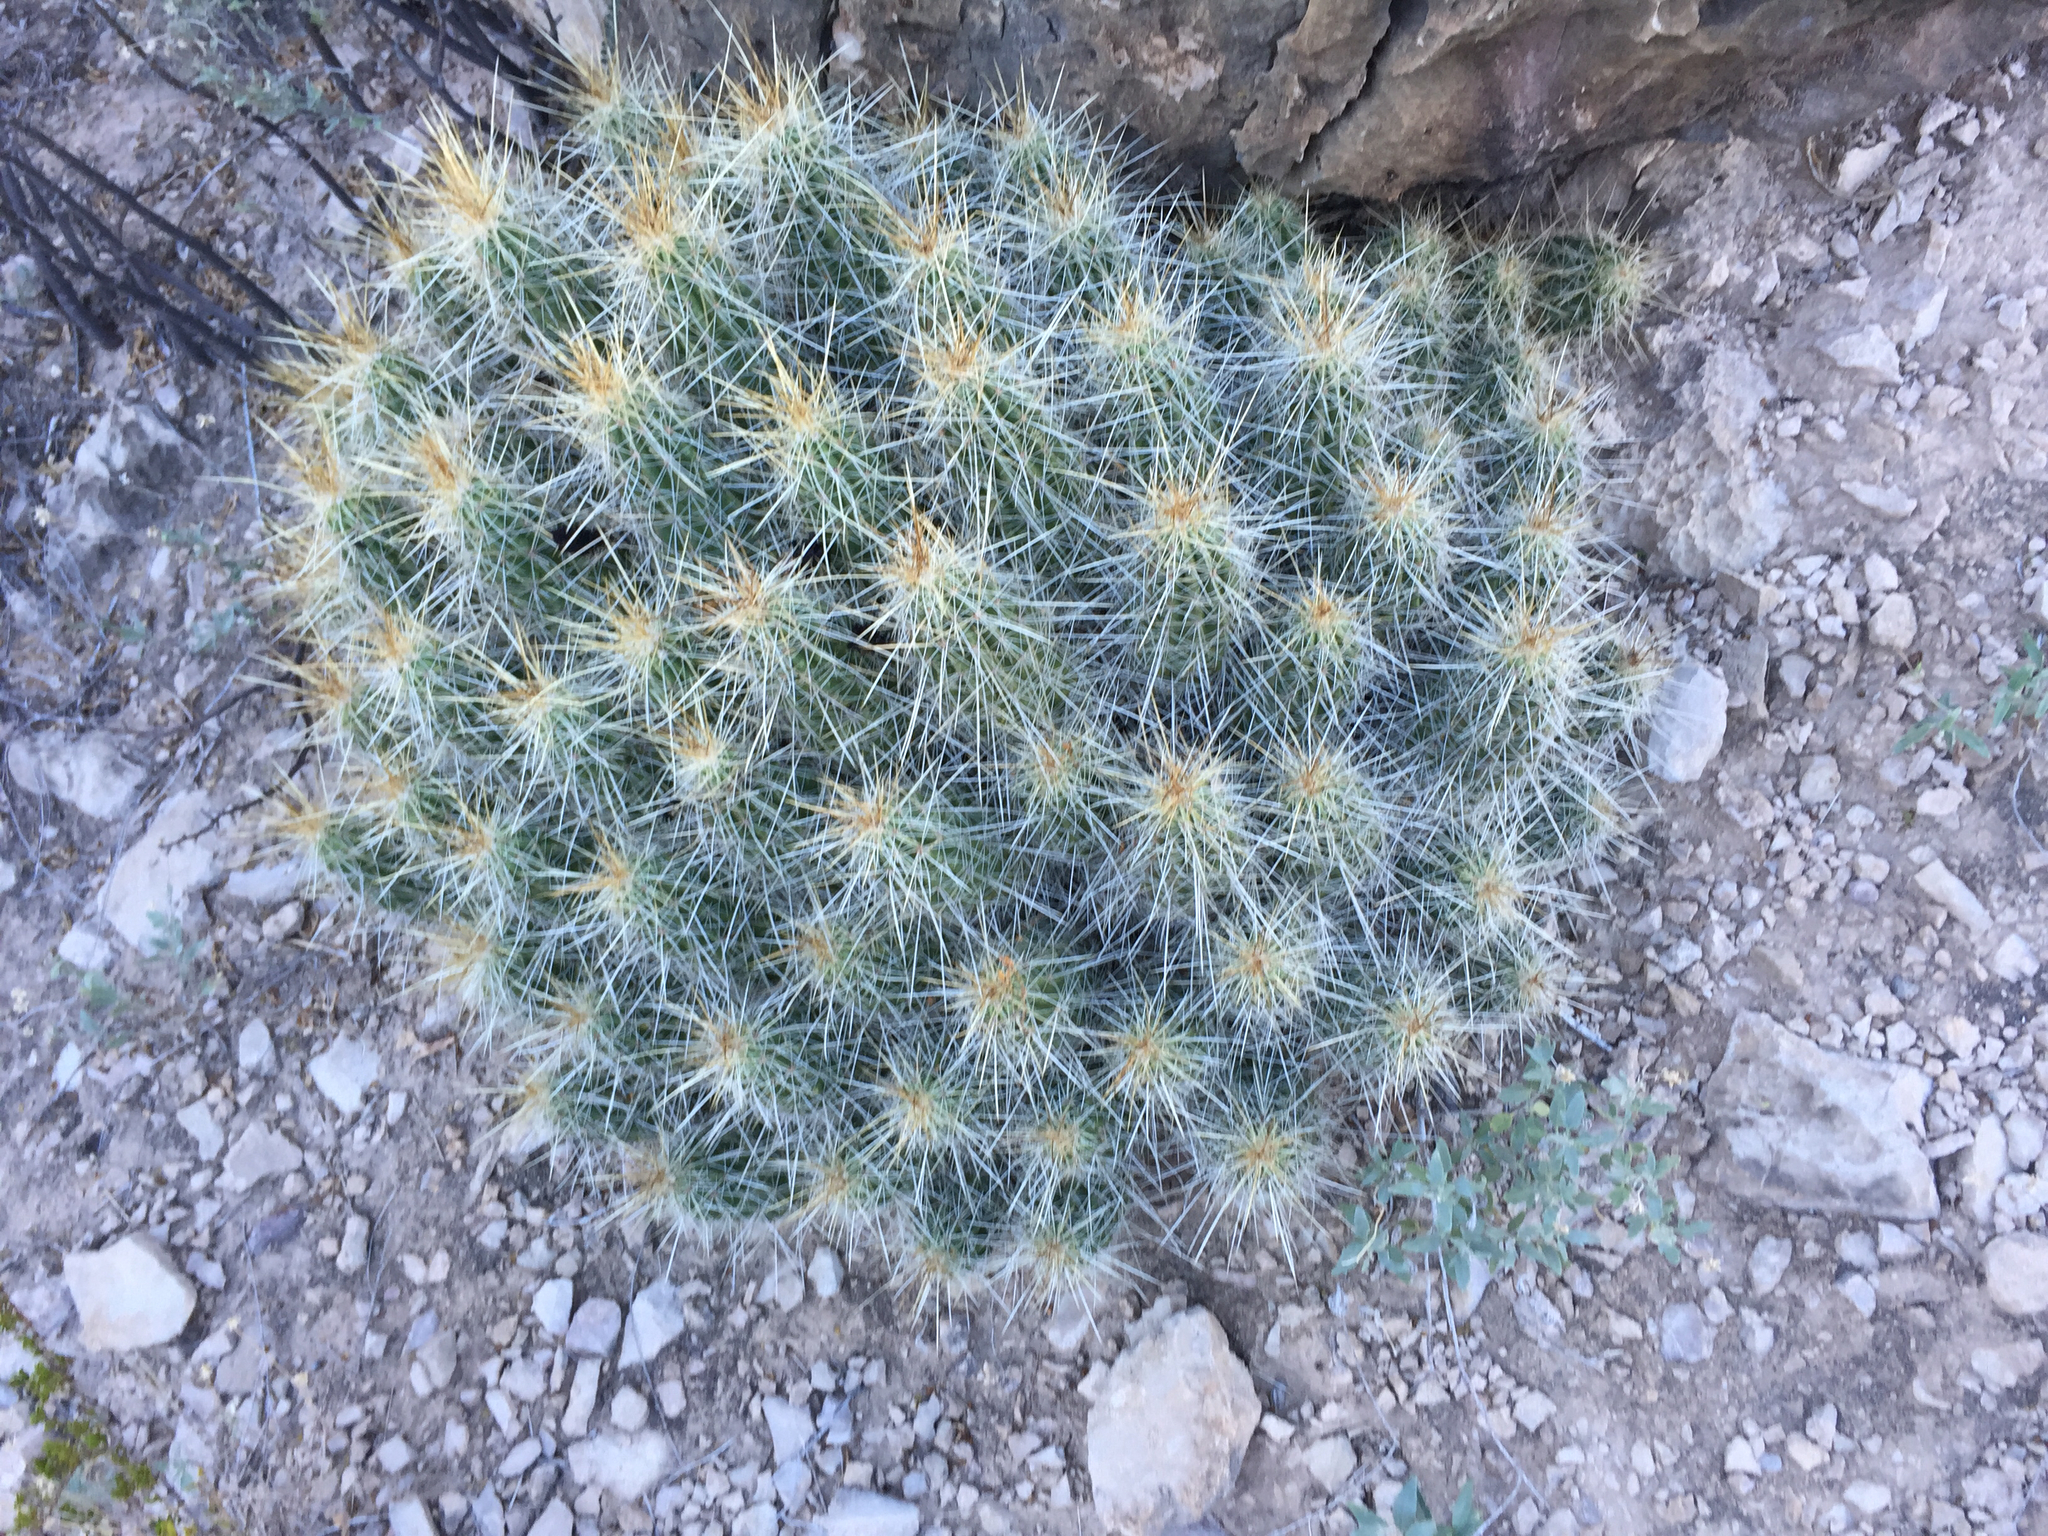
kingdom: Plantae
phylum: Tracheophyta
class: Magnoliopsida
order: Caryophyllales
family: Cactaceae
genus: Echinocereus
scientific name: Echinocereus stramineus
